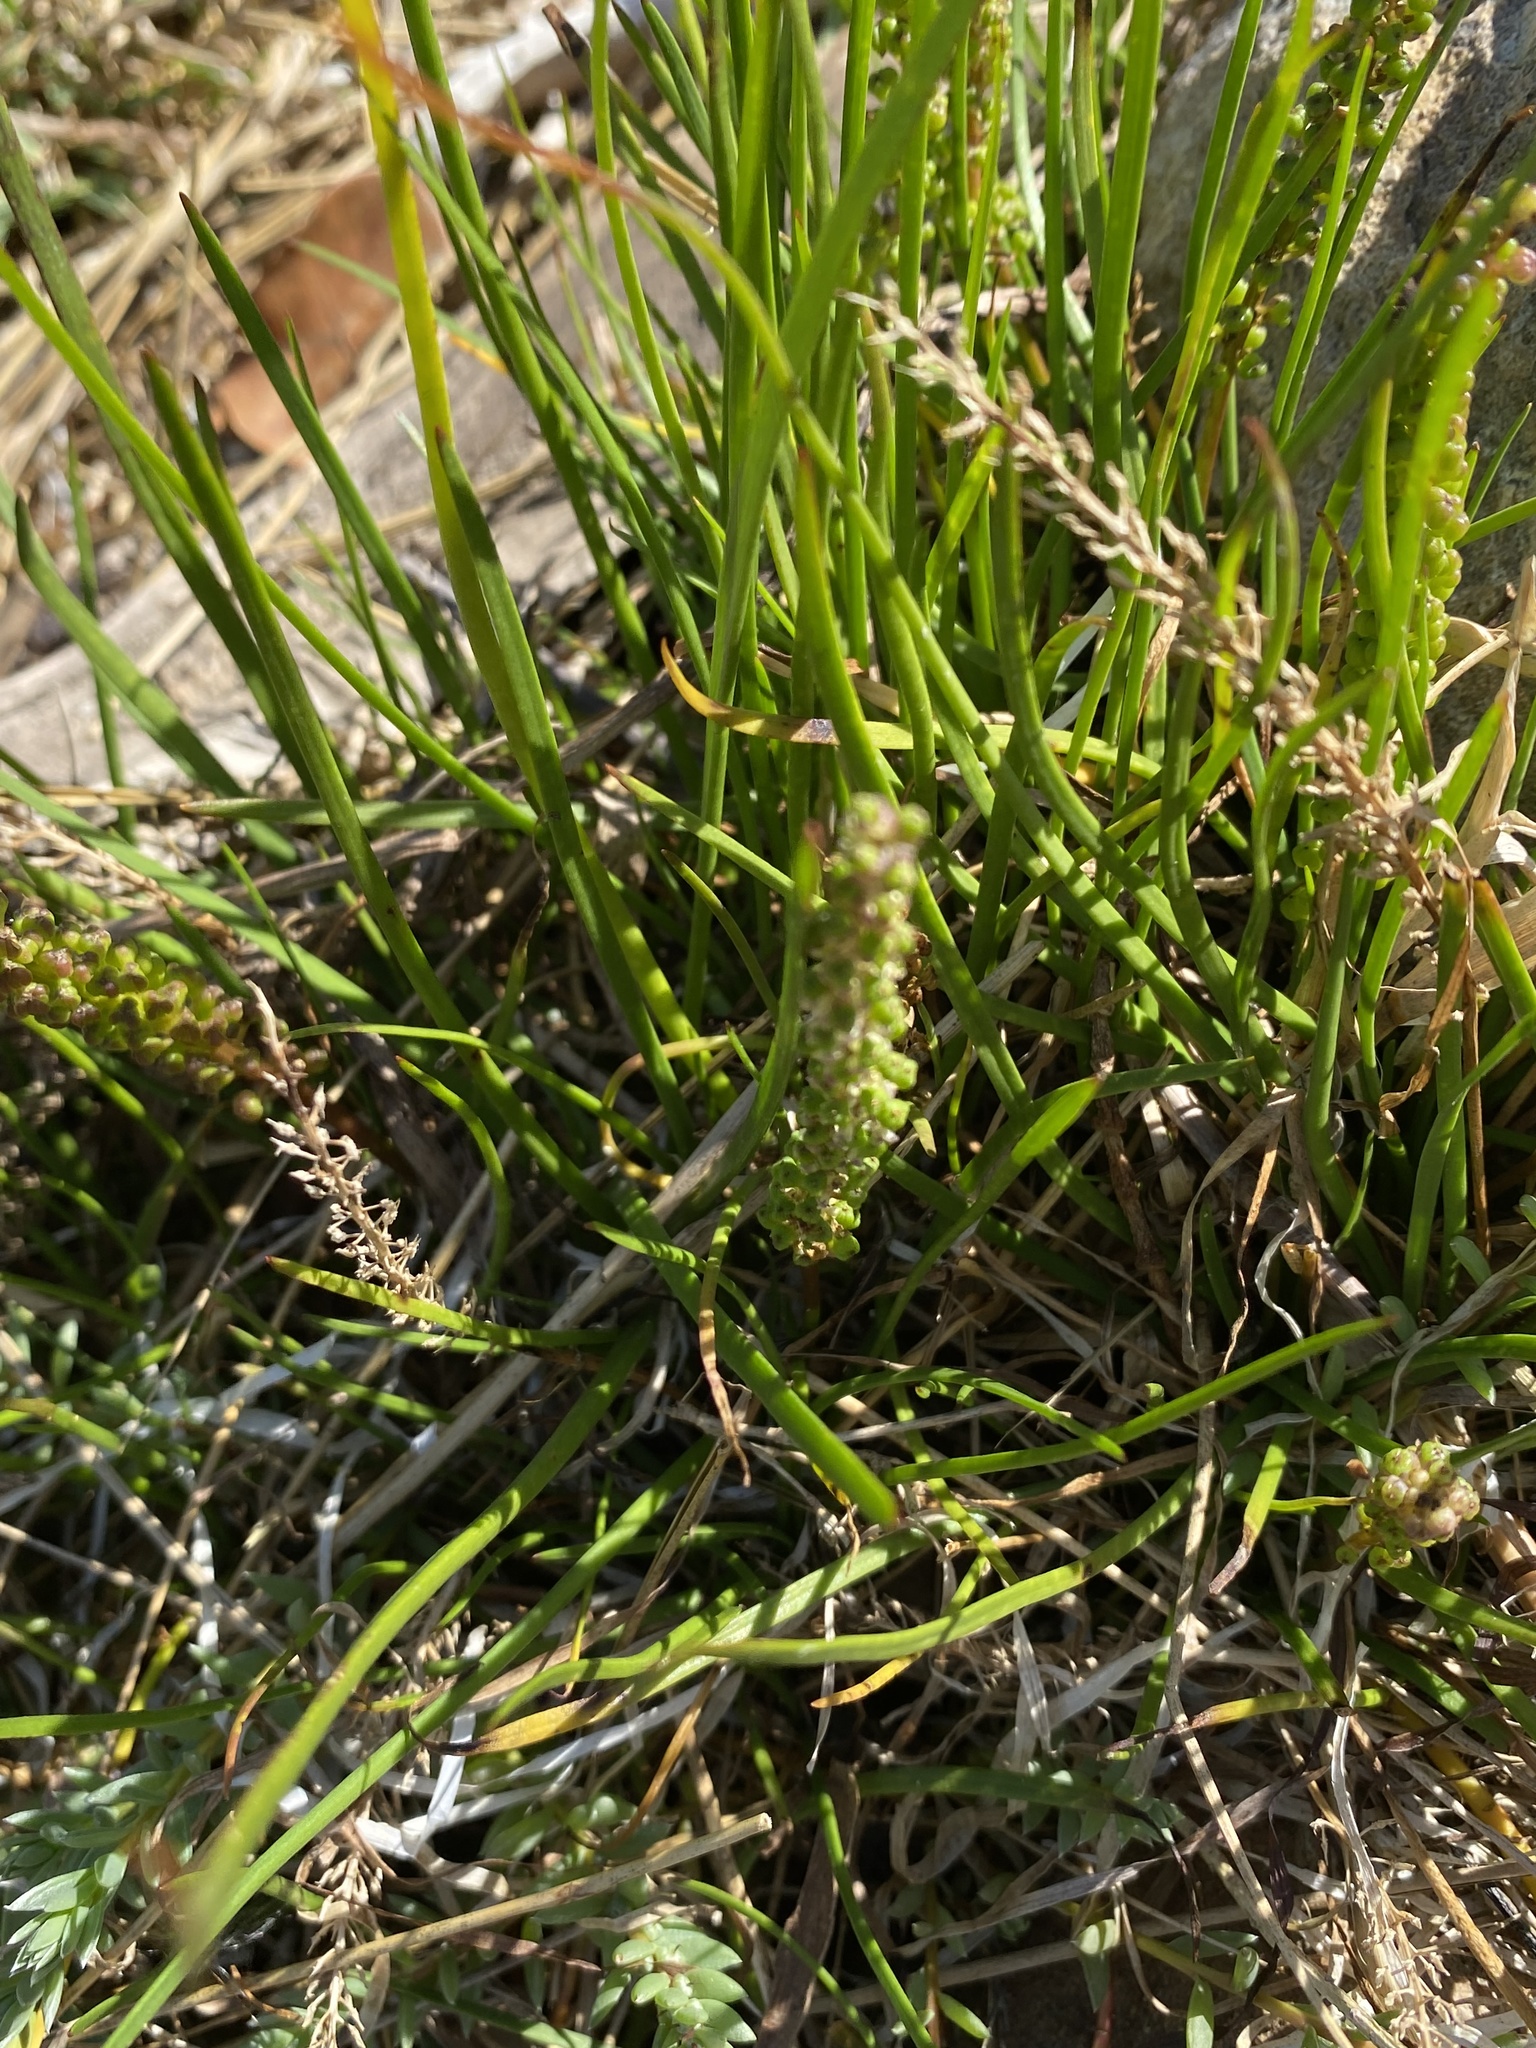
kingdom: Plantae
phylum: Tracheophyta
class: Liliopsida
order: Alismatales
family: Juncaginaceae
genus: Triglochin
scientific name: Triglochin elongata
